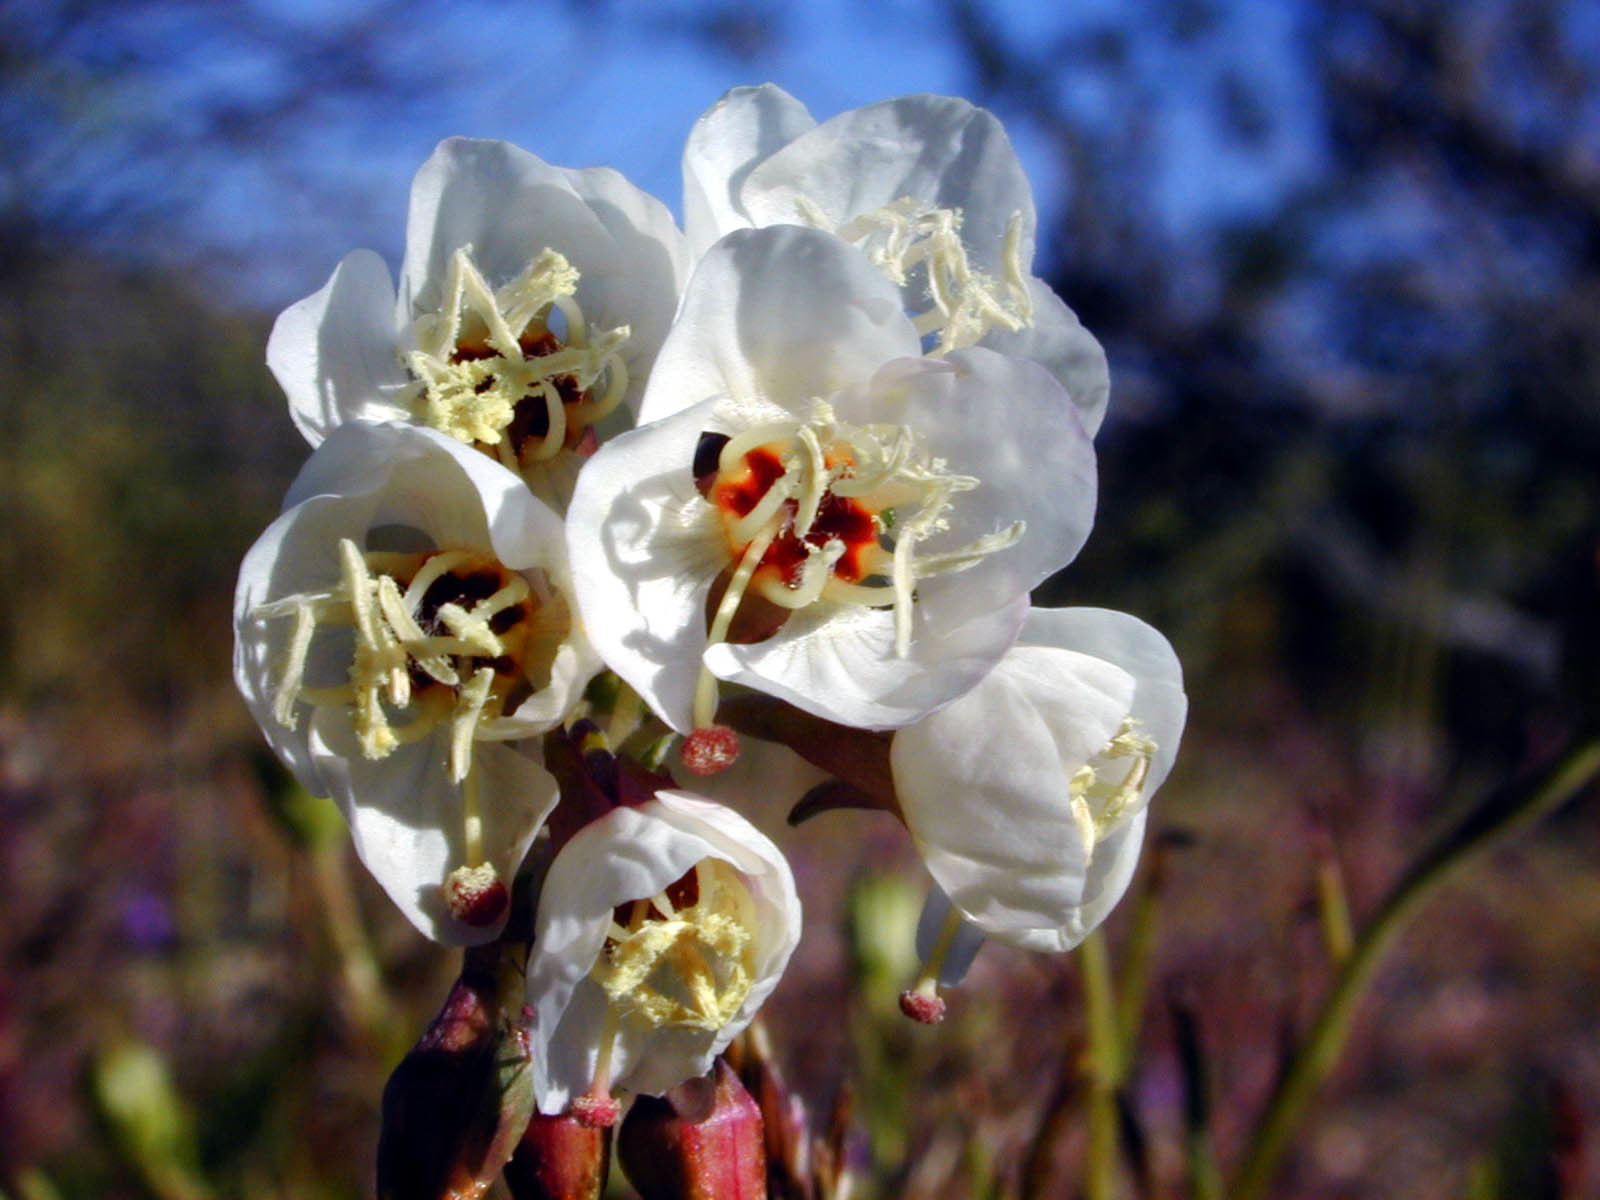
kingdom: Plantae
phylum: Tracheophyta
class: Magnoliopsida
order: Myrtales
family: Onagraceae
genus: Chylismia
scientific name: Chylismia claviformis
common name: Browneyes
